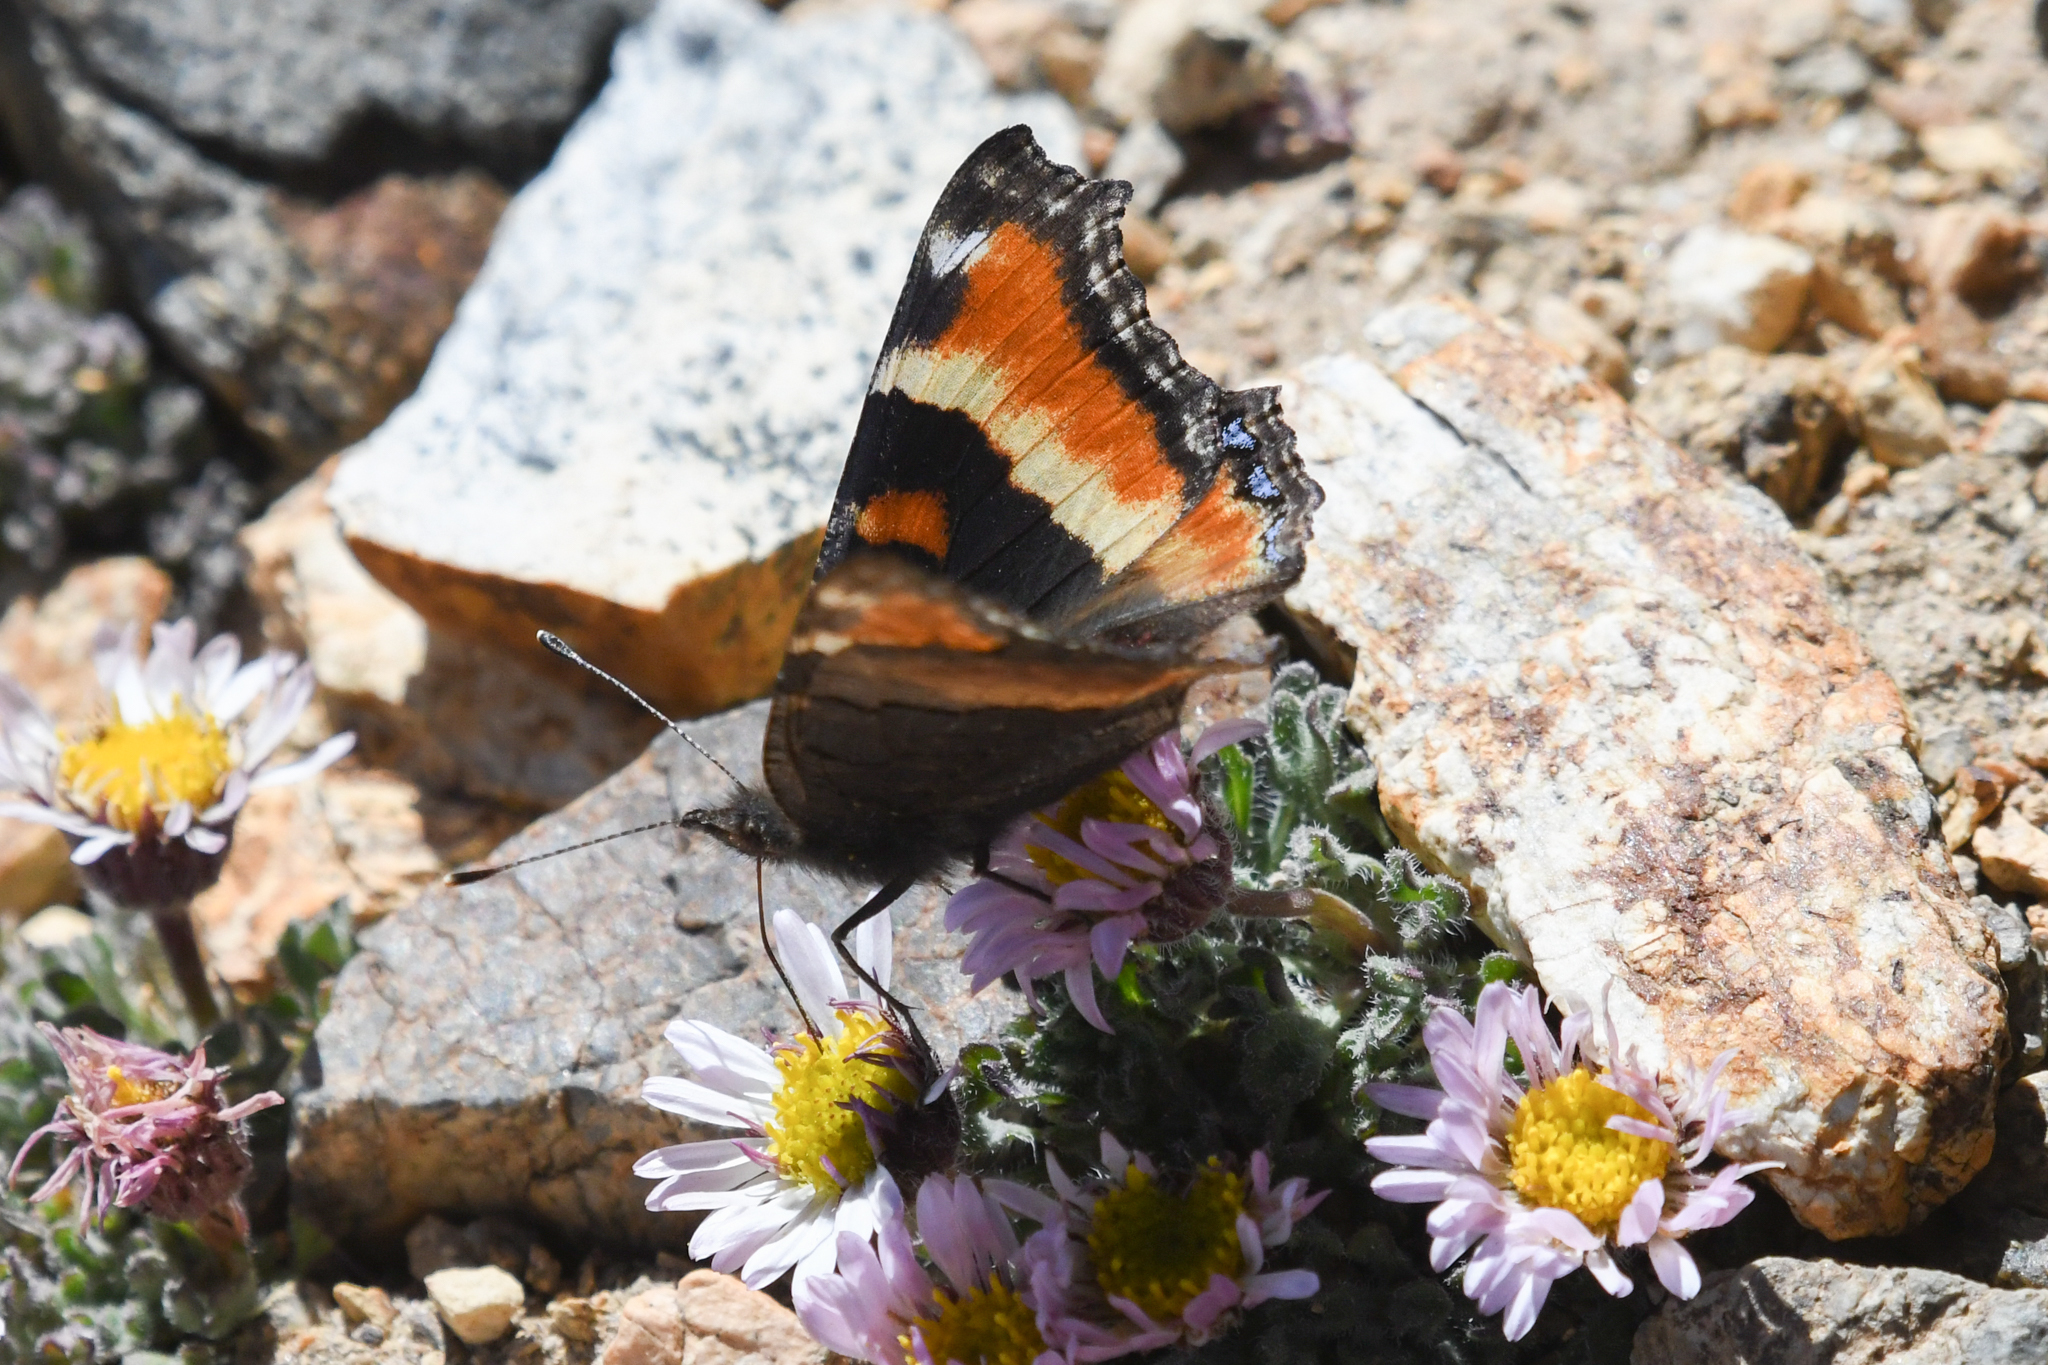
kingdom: Animalia
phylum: Arthropoda
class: Insecta
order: Lepidoptera
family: Nymphalidae
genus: Aglais
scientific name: Aglais milberti
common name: Milbert's tortoiseshell
